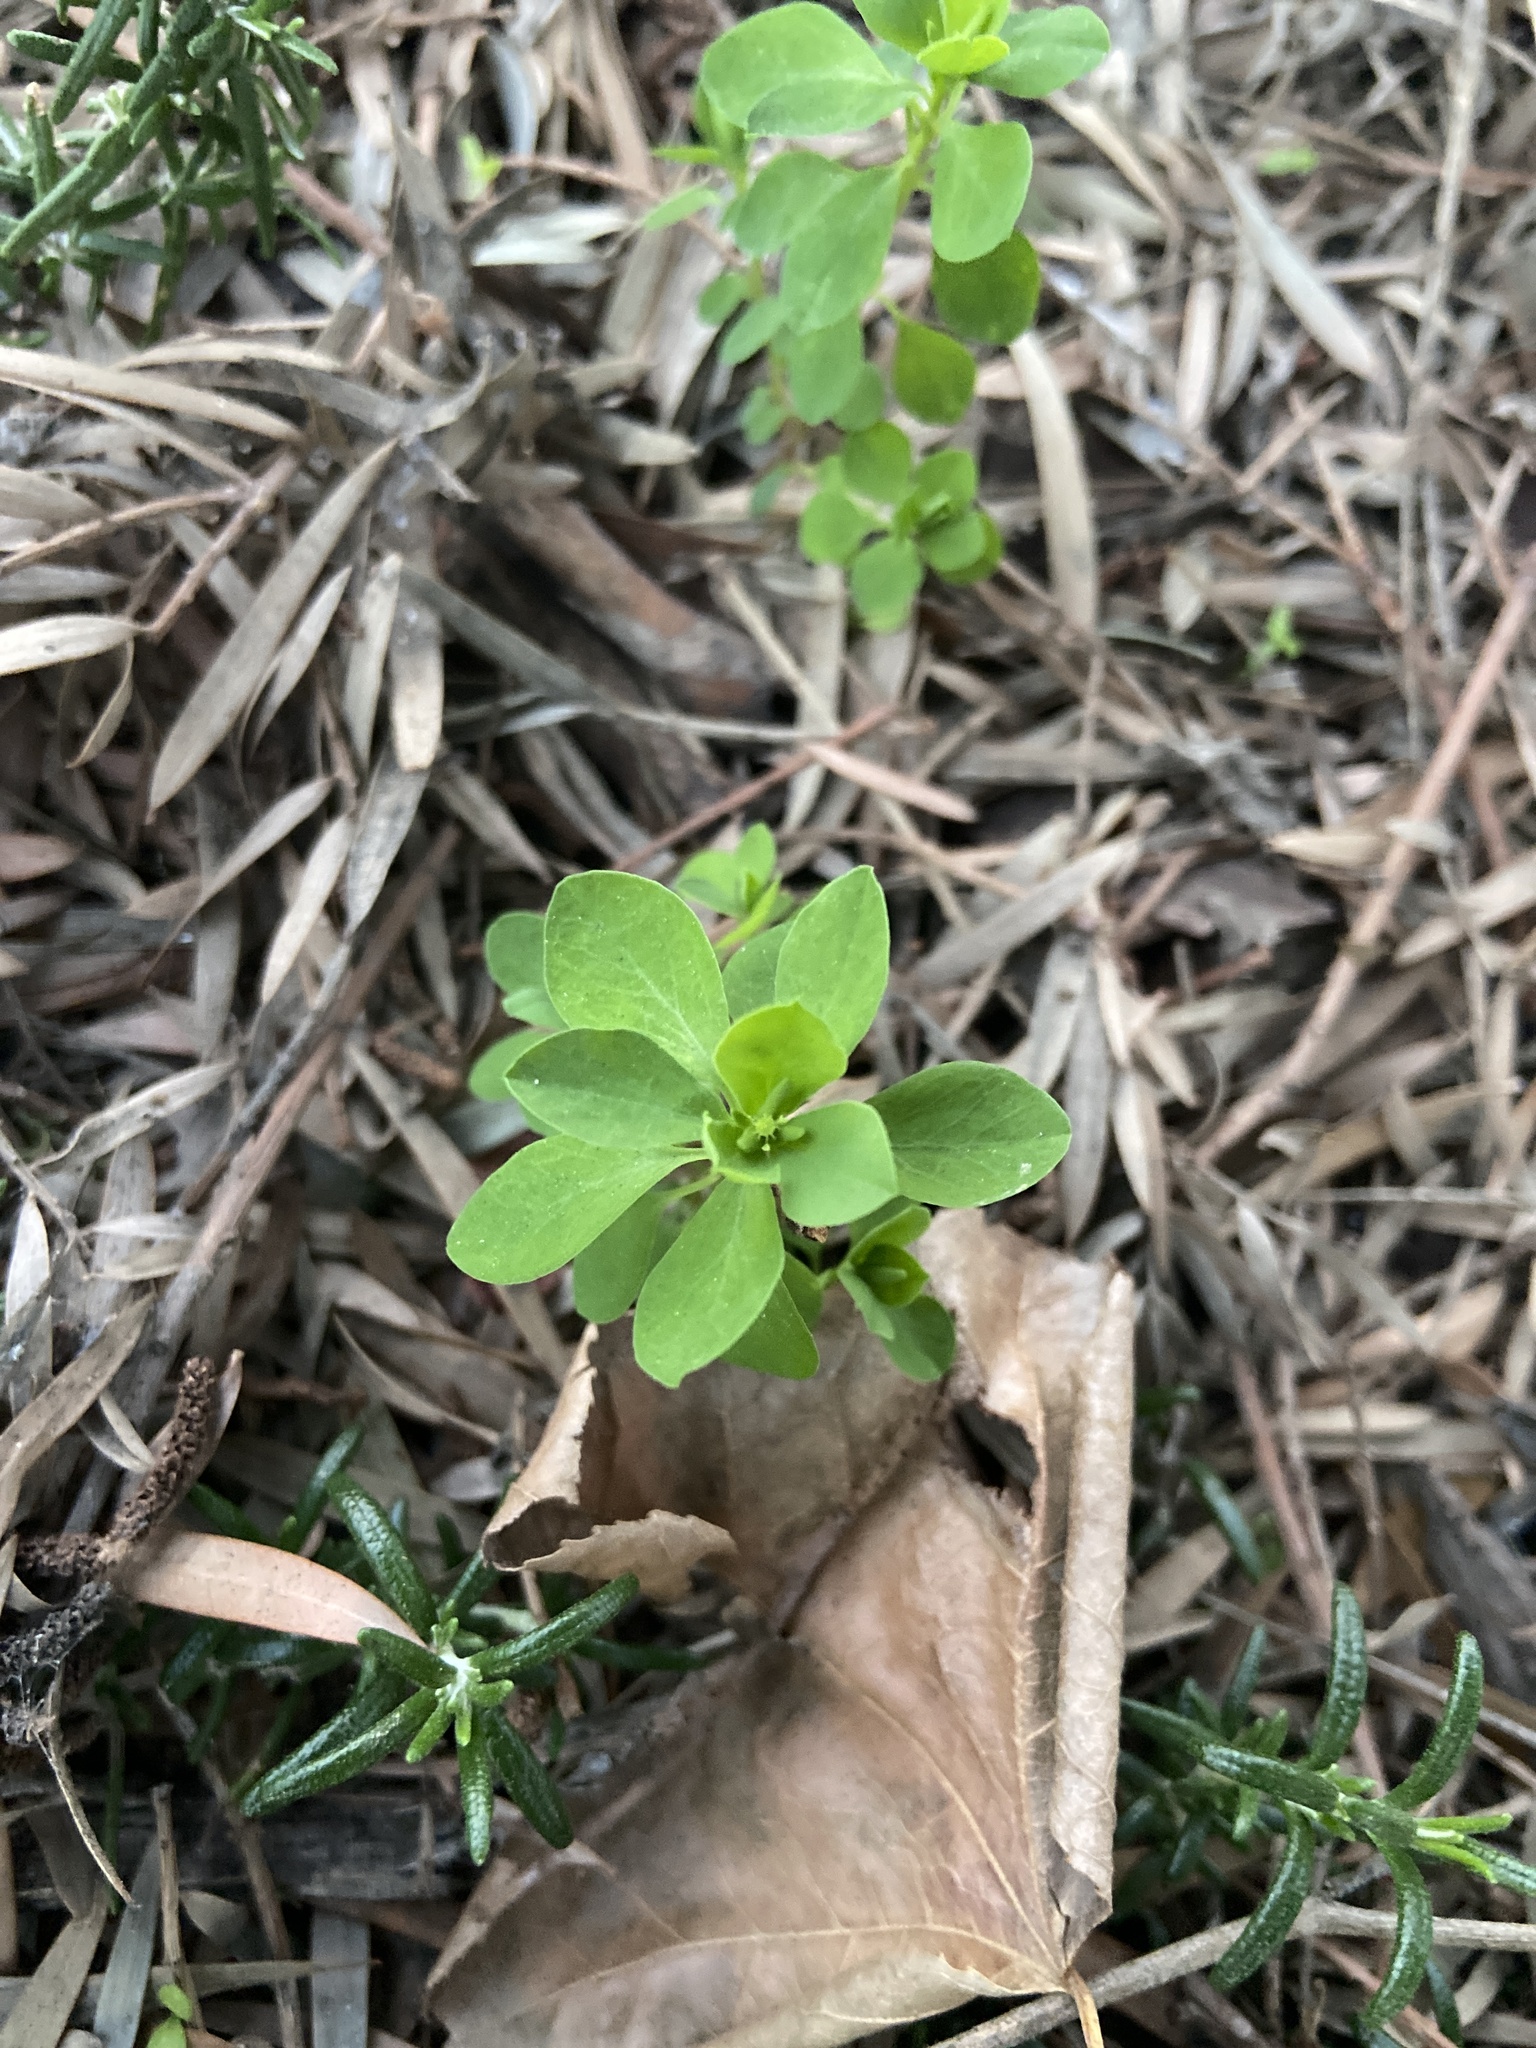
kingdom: Plantae
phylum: Tracheophyta
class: Magnoliopsida
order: Malpighiales
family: Euphorbiaceae
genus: Euphorbia
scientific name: Euphorbia peplus
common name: Petty spurge
